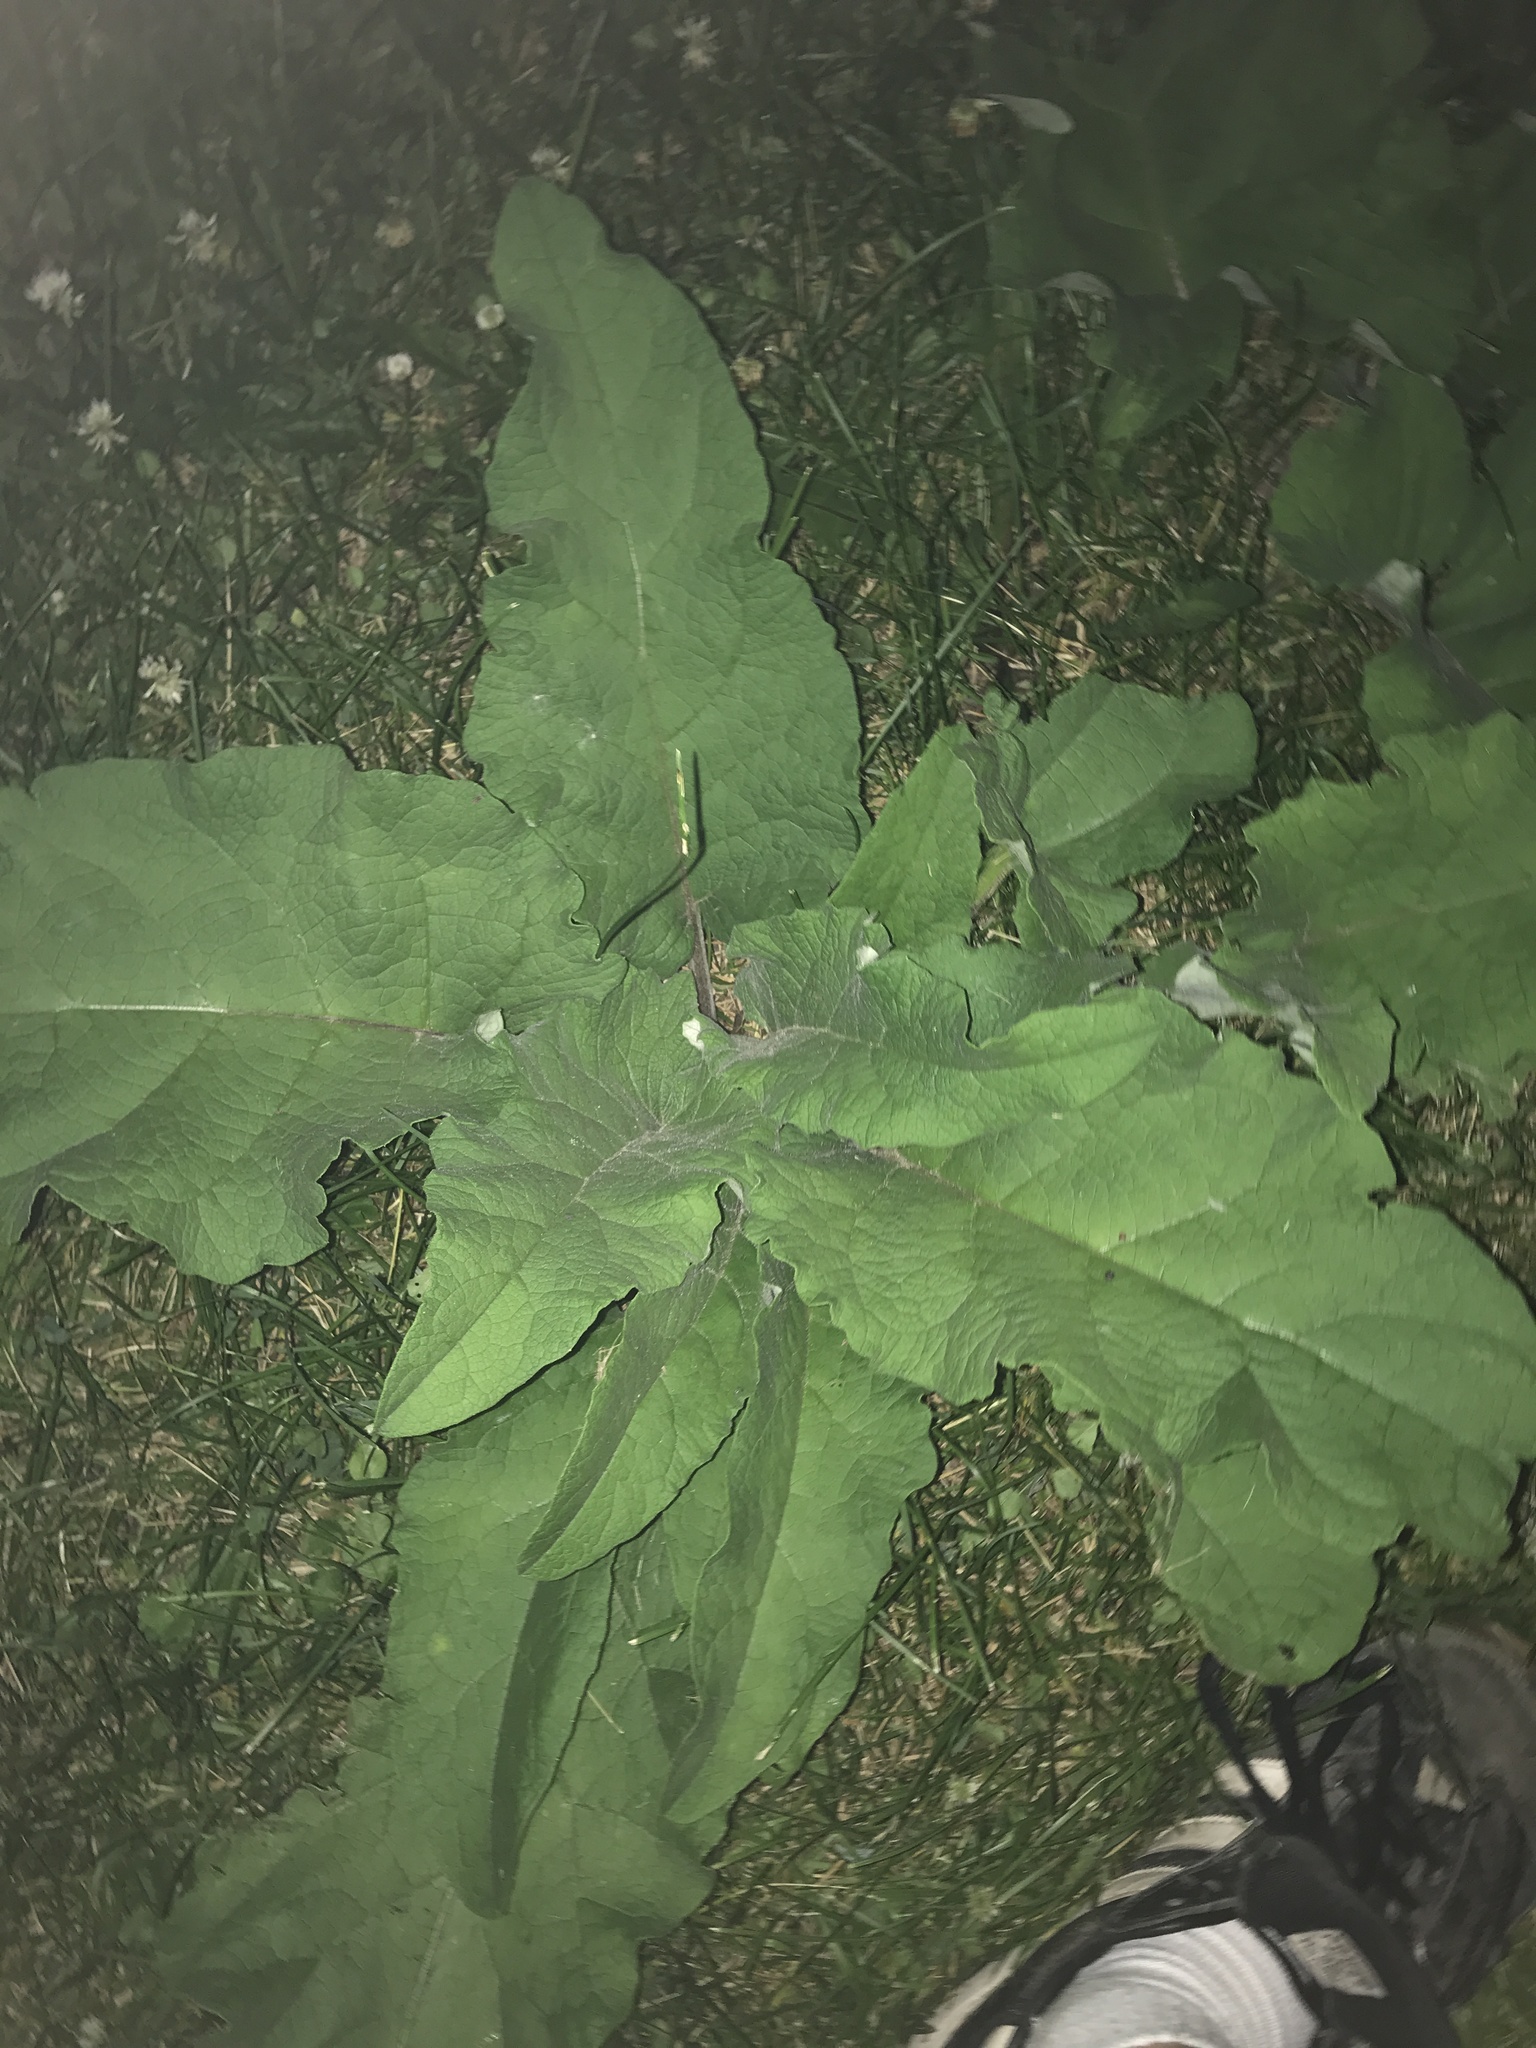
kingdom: Plantae
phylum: Tracheophyta
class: Magnoliopsida
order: Asterales
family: Asteraceae
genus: Arctium
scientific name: Arctium
